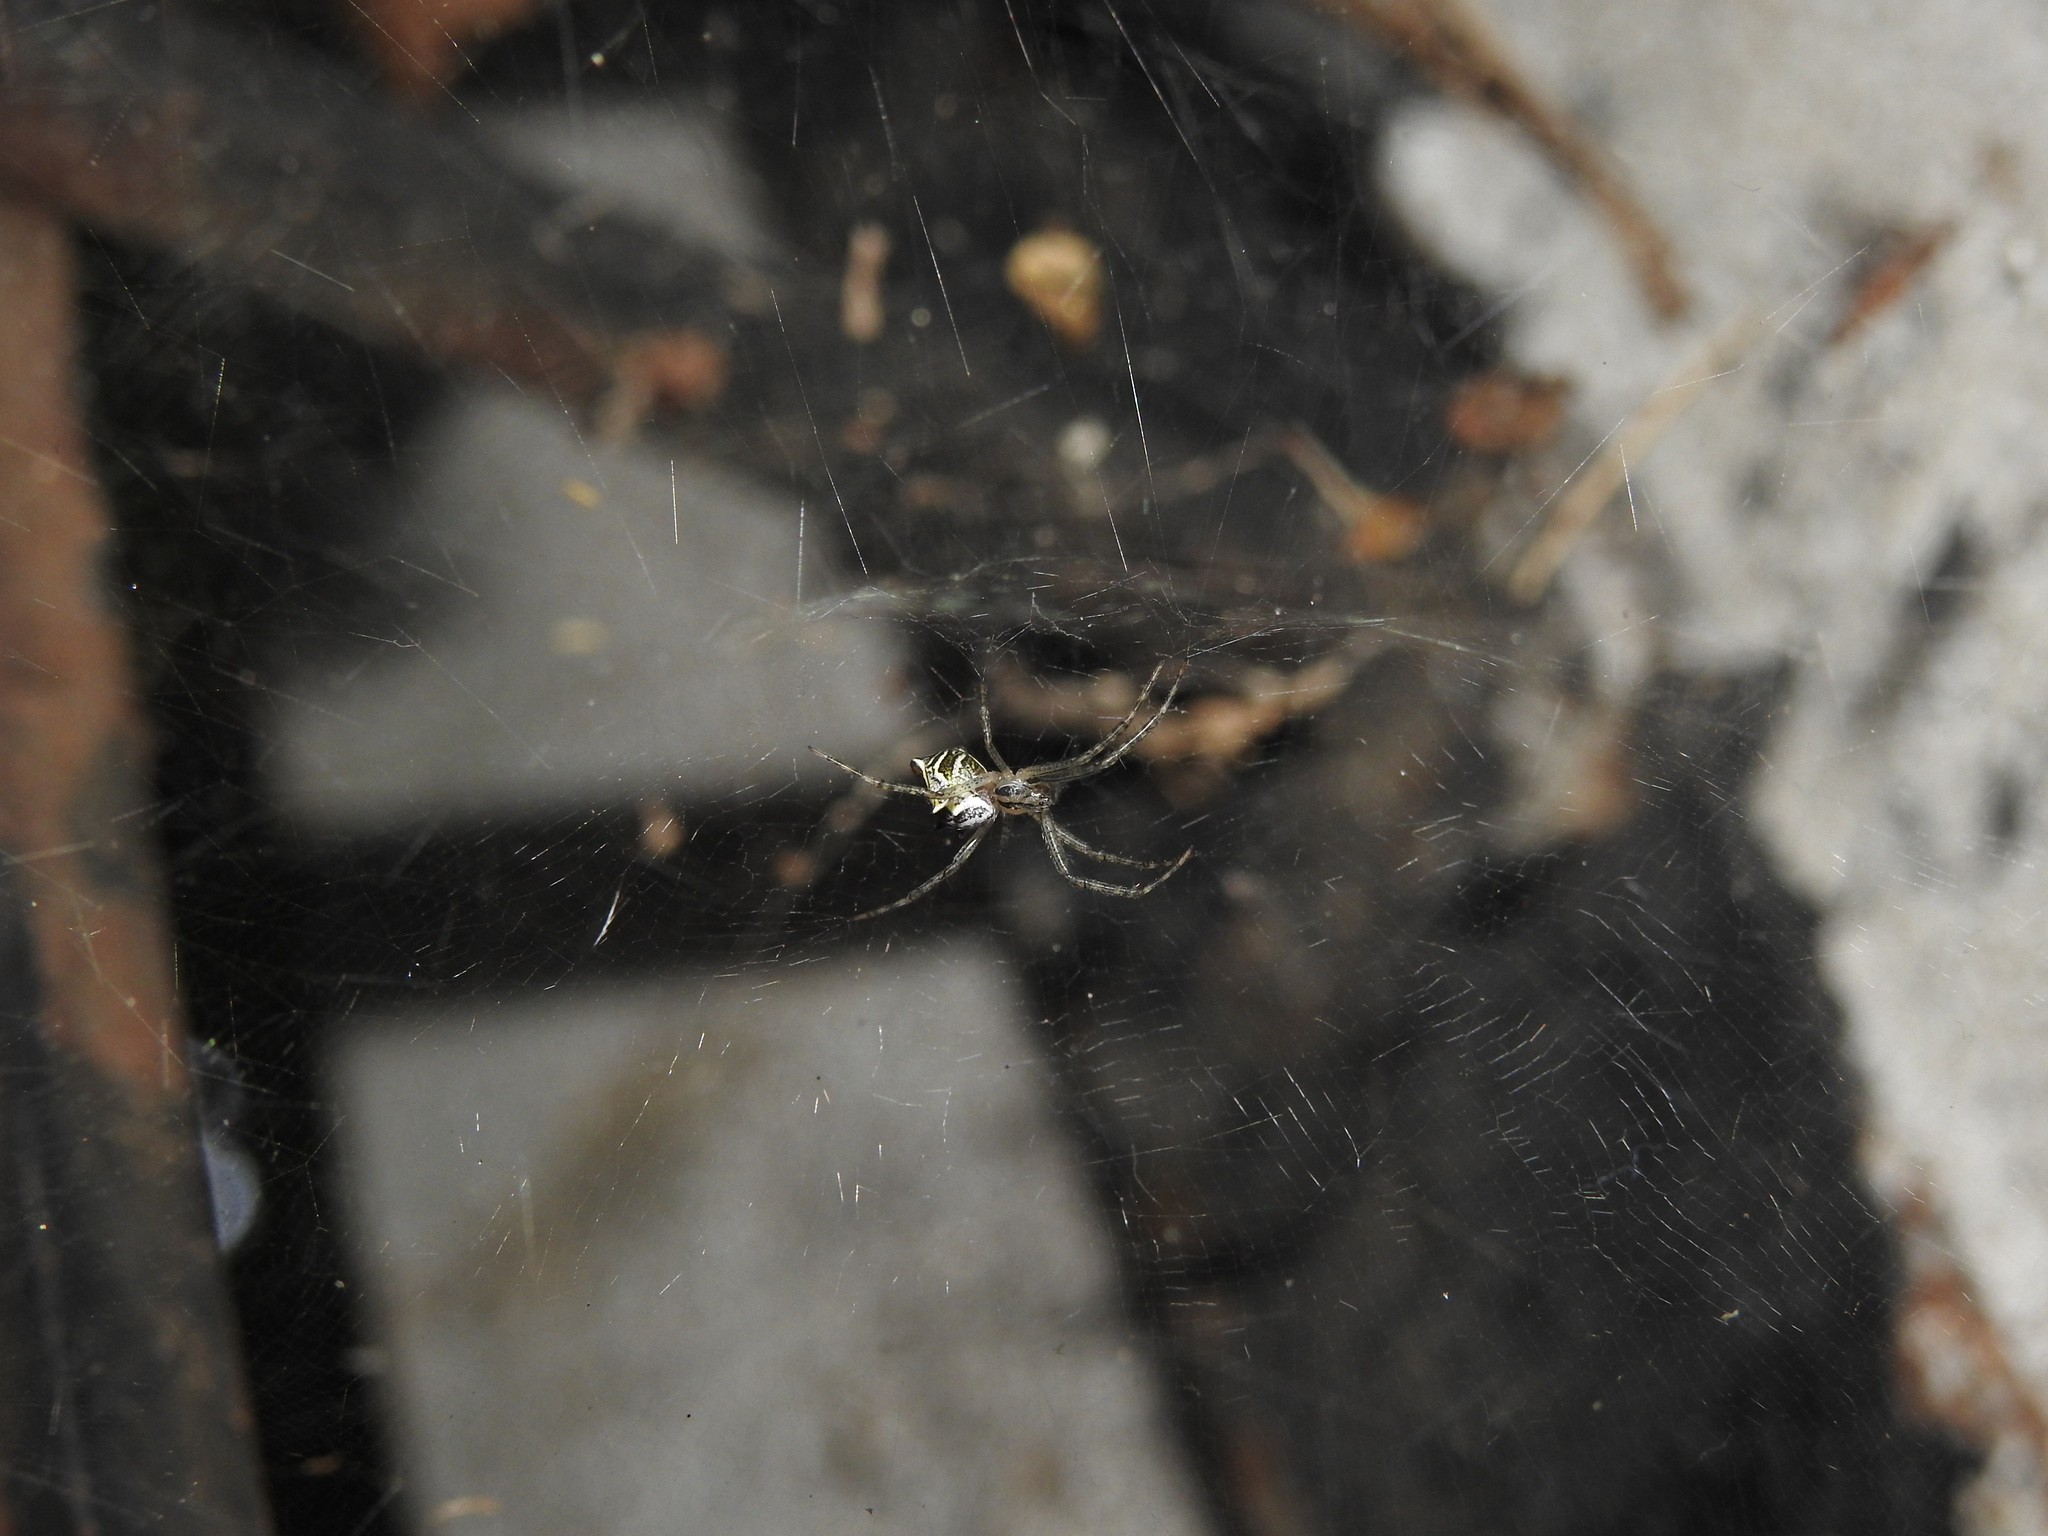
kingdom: Animalia
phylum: Arthropoda
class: Arachnida
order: Araneae
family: Araneidae
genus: Cyrtophora
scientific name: Cyrtophora cicatrosa
